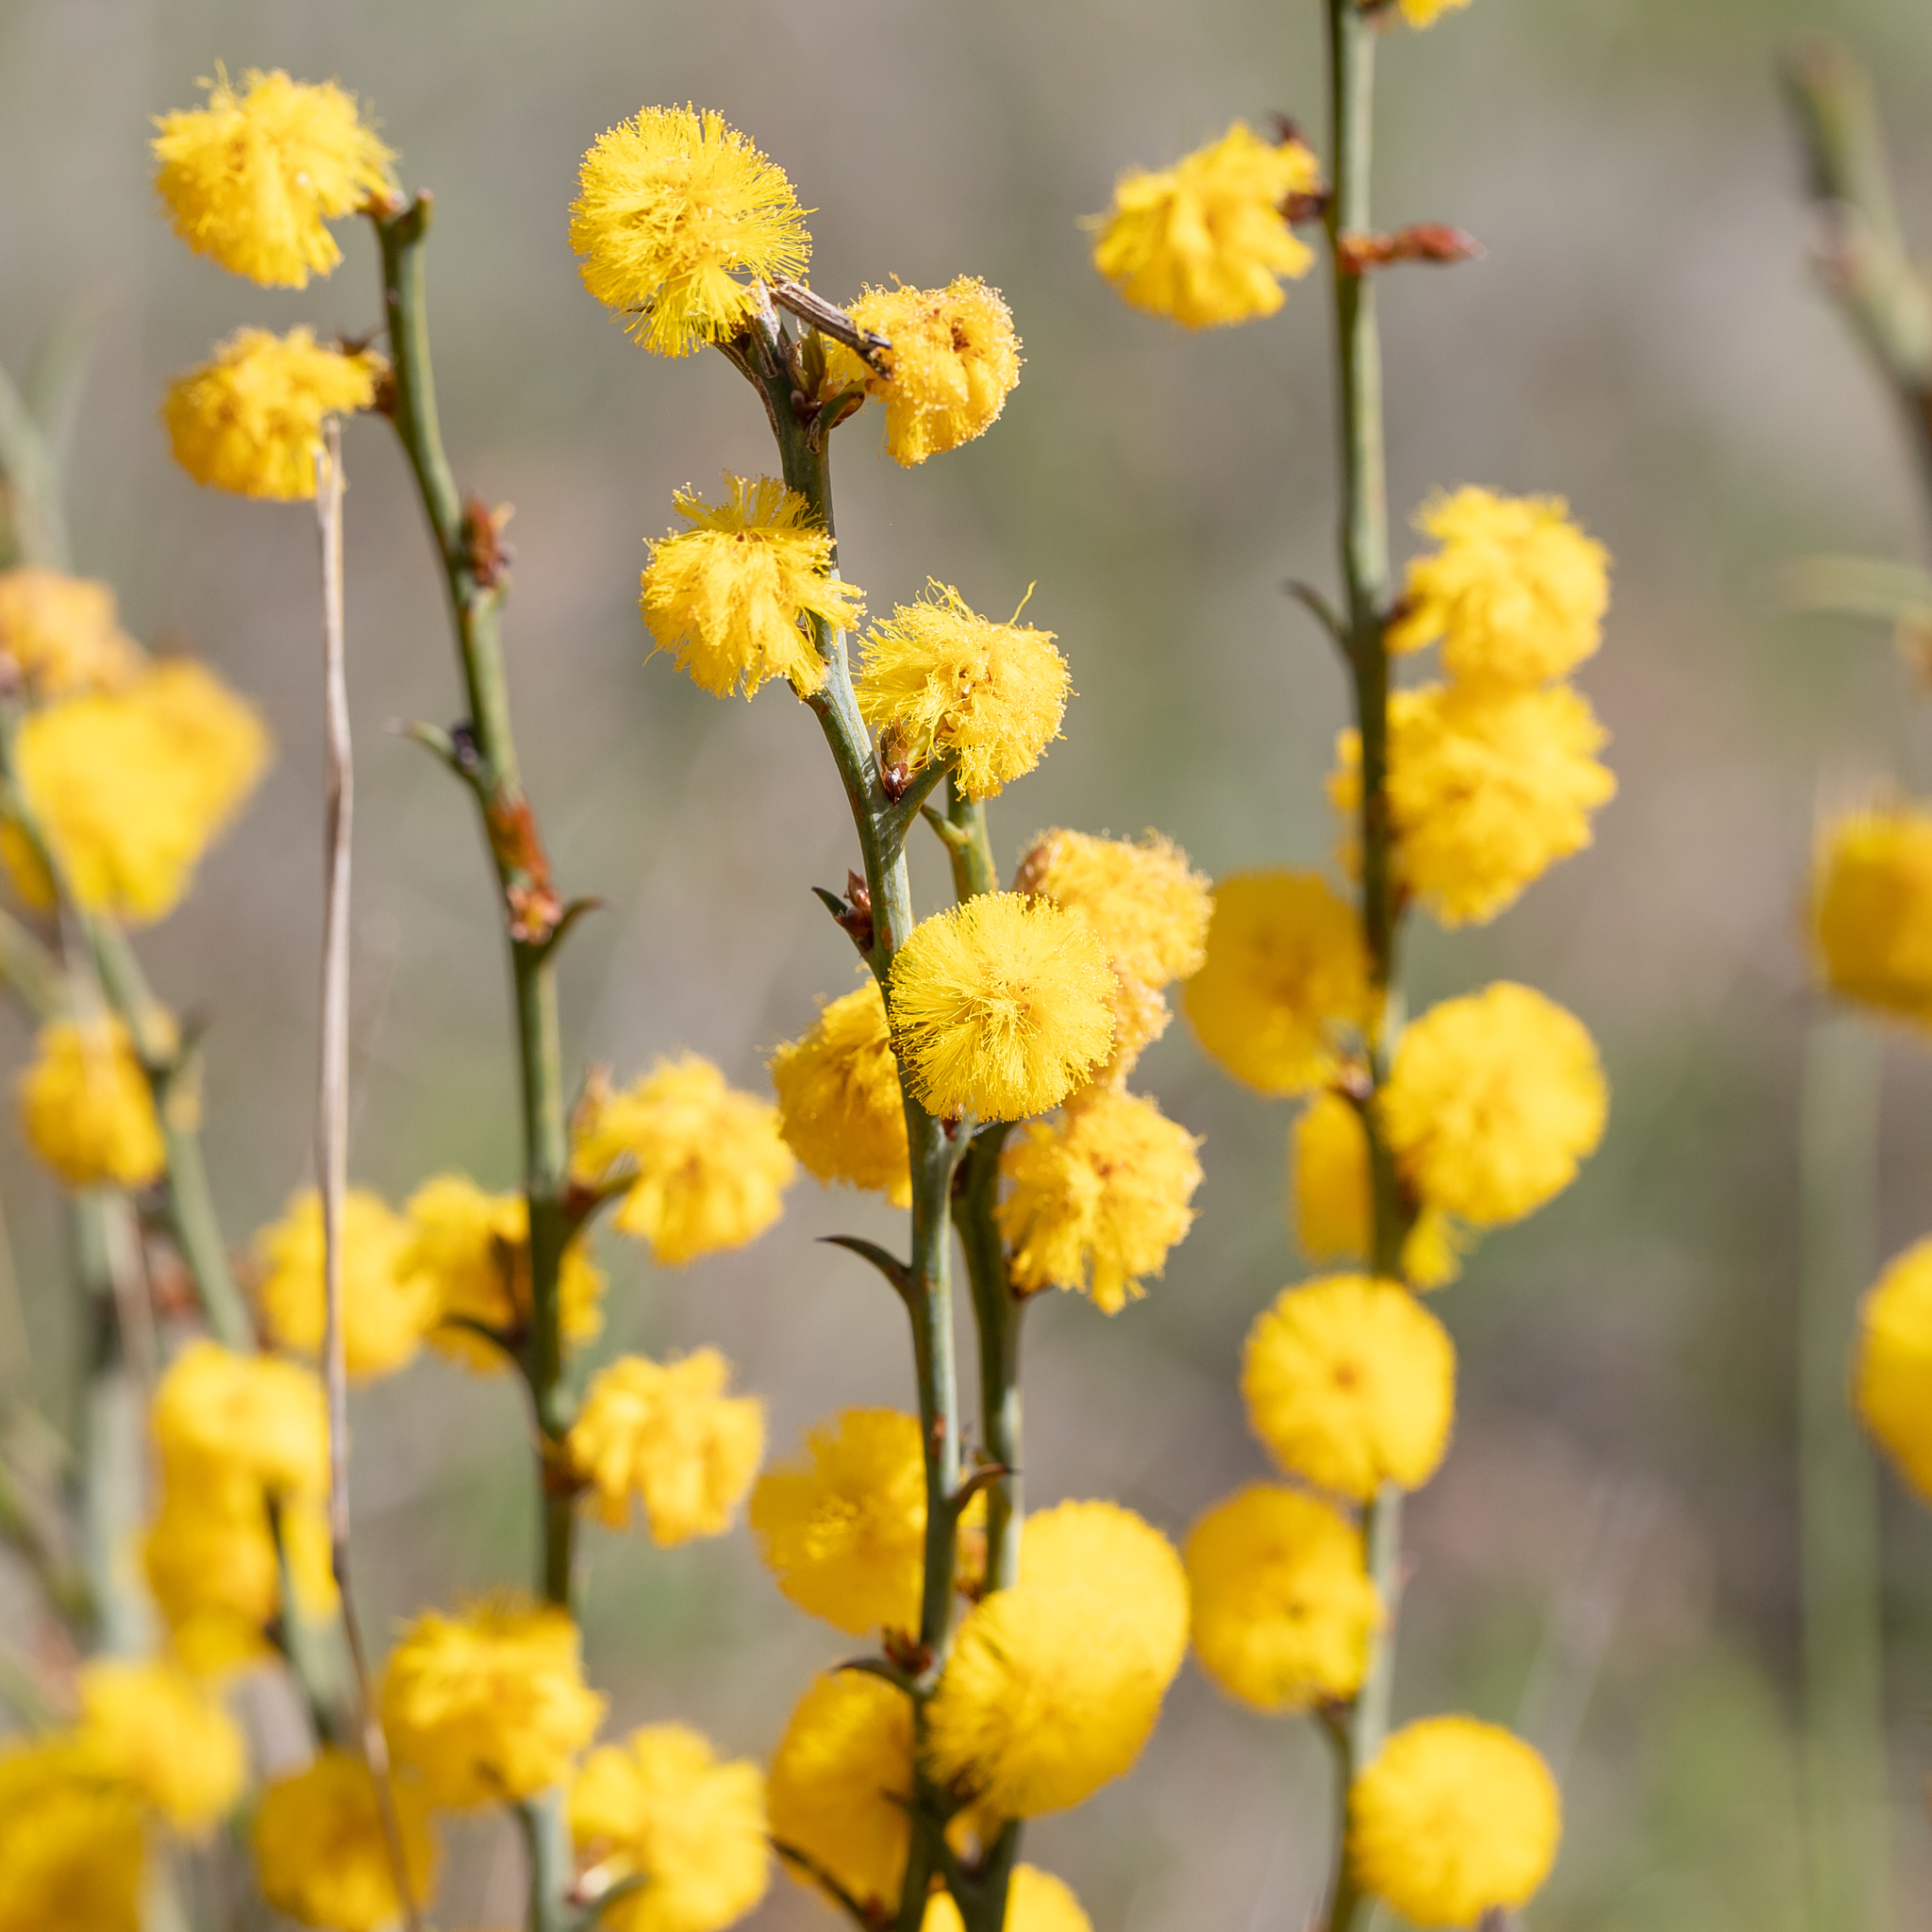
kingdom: Plantae
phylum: Tracheophyta
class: Magnoliopsida
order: Fabales
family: Fabaceae
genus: Acacia
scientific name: Acacia continua
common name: Thorn wattle
